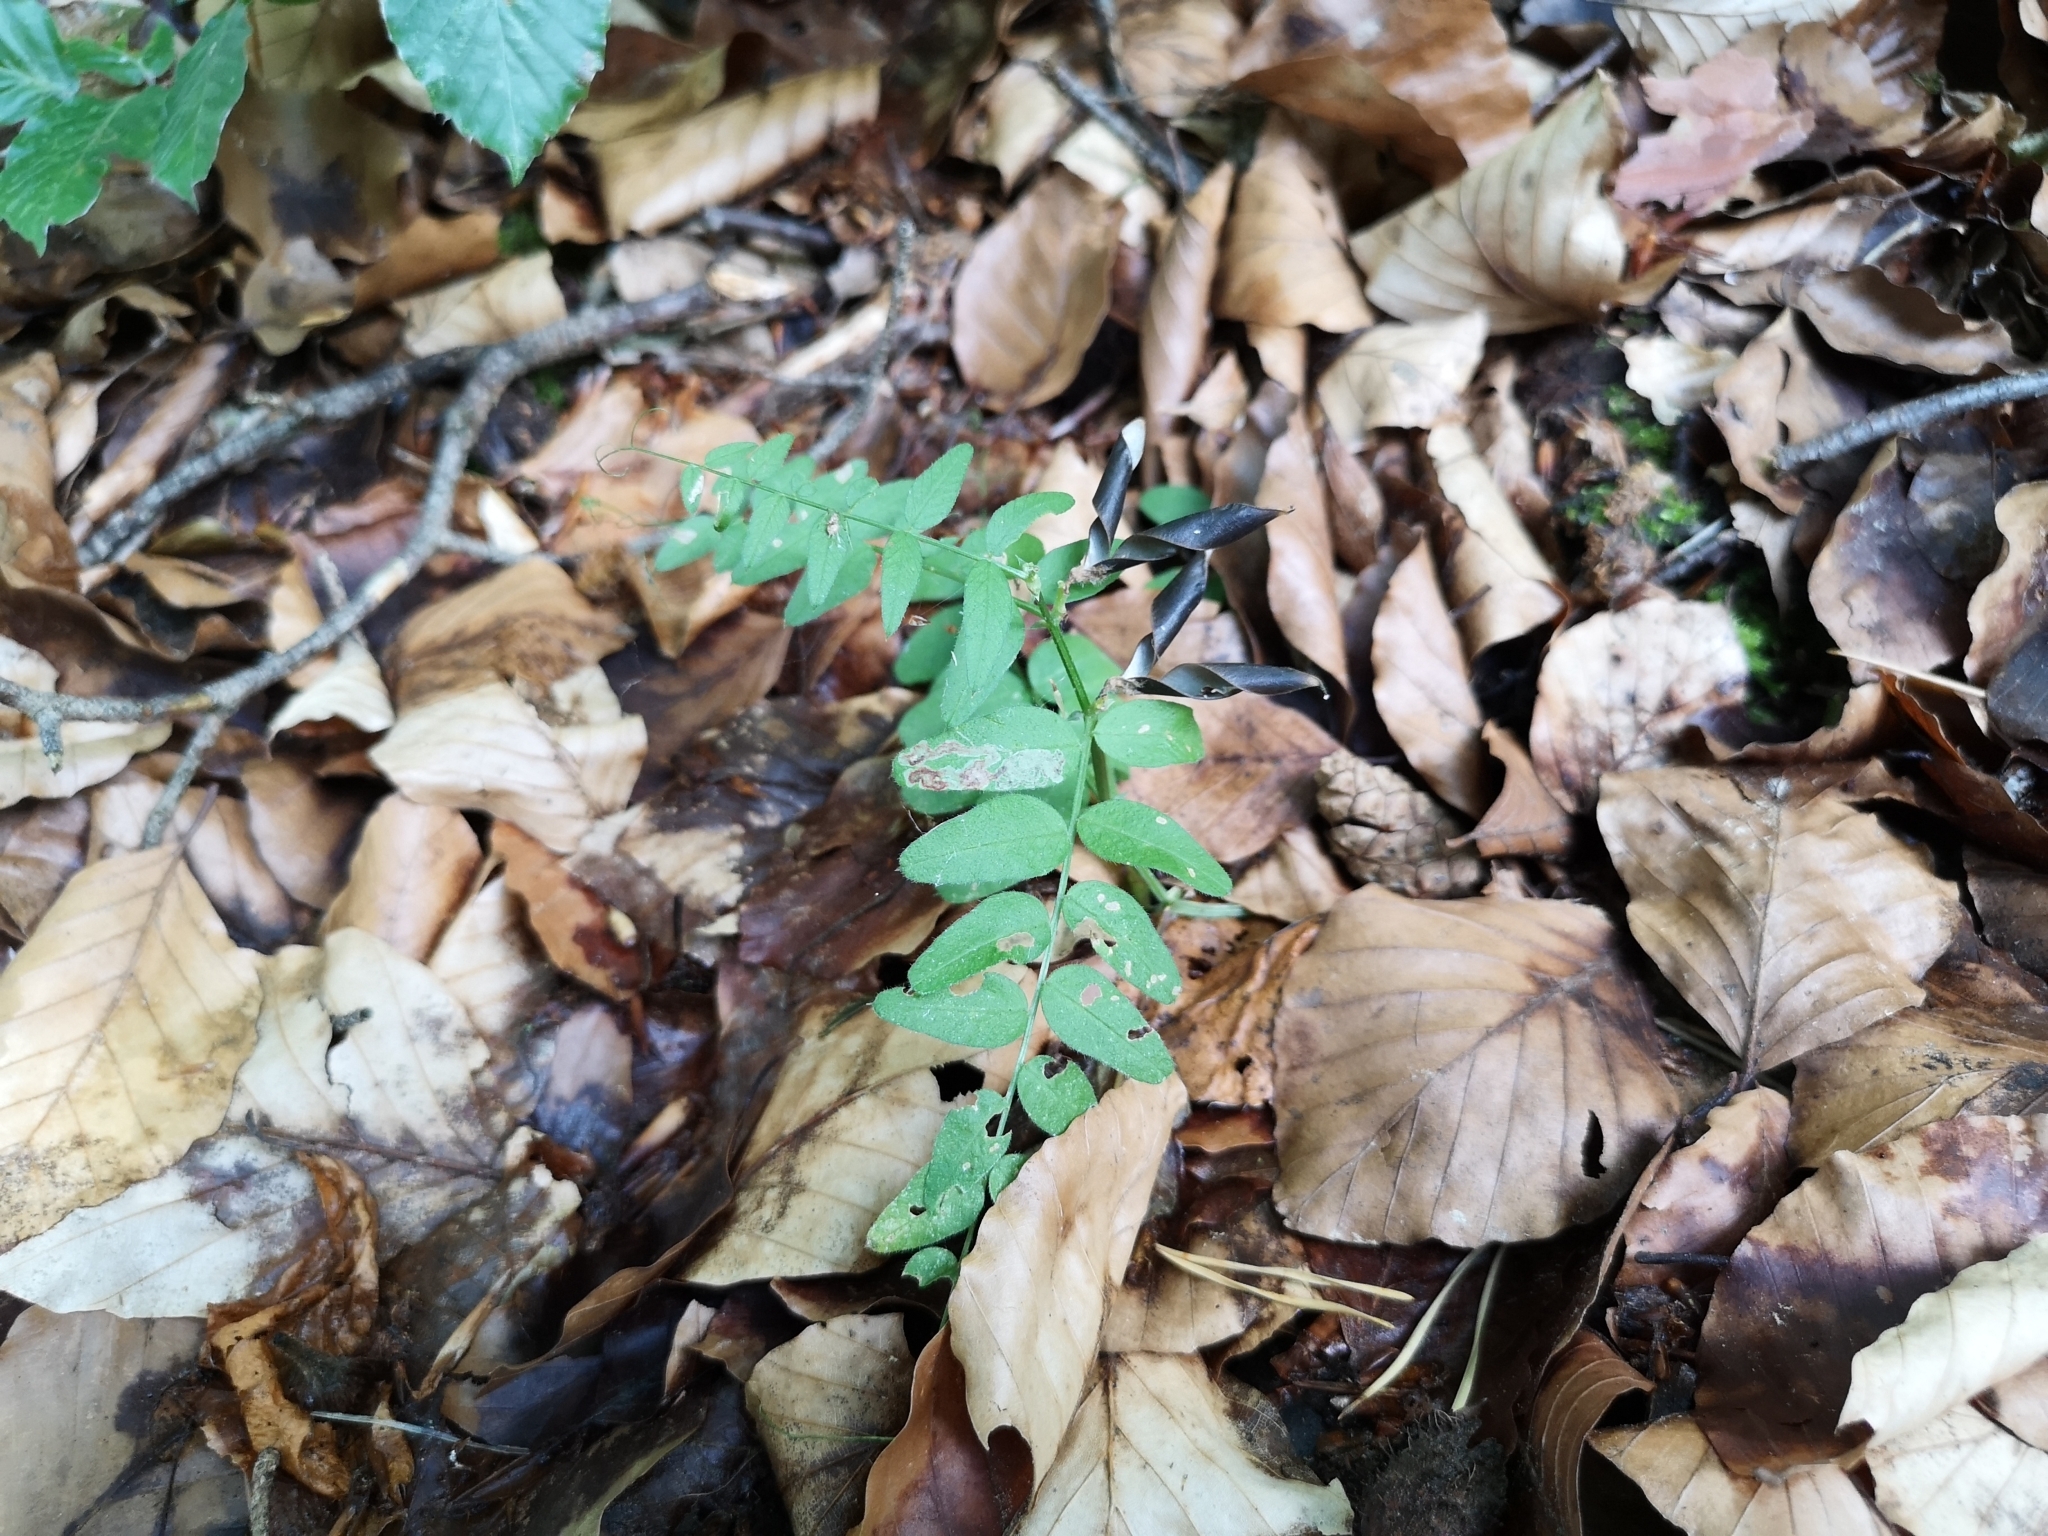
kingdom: Plantae
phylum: Tracheophyta
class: Magnoliopsida
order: Fabales
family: Fabaceae
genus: Vicia
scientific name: Vicia sepium
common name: Bush vetch
